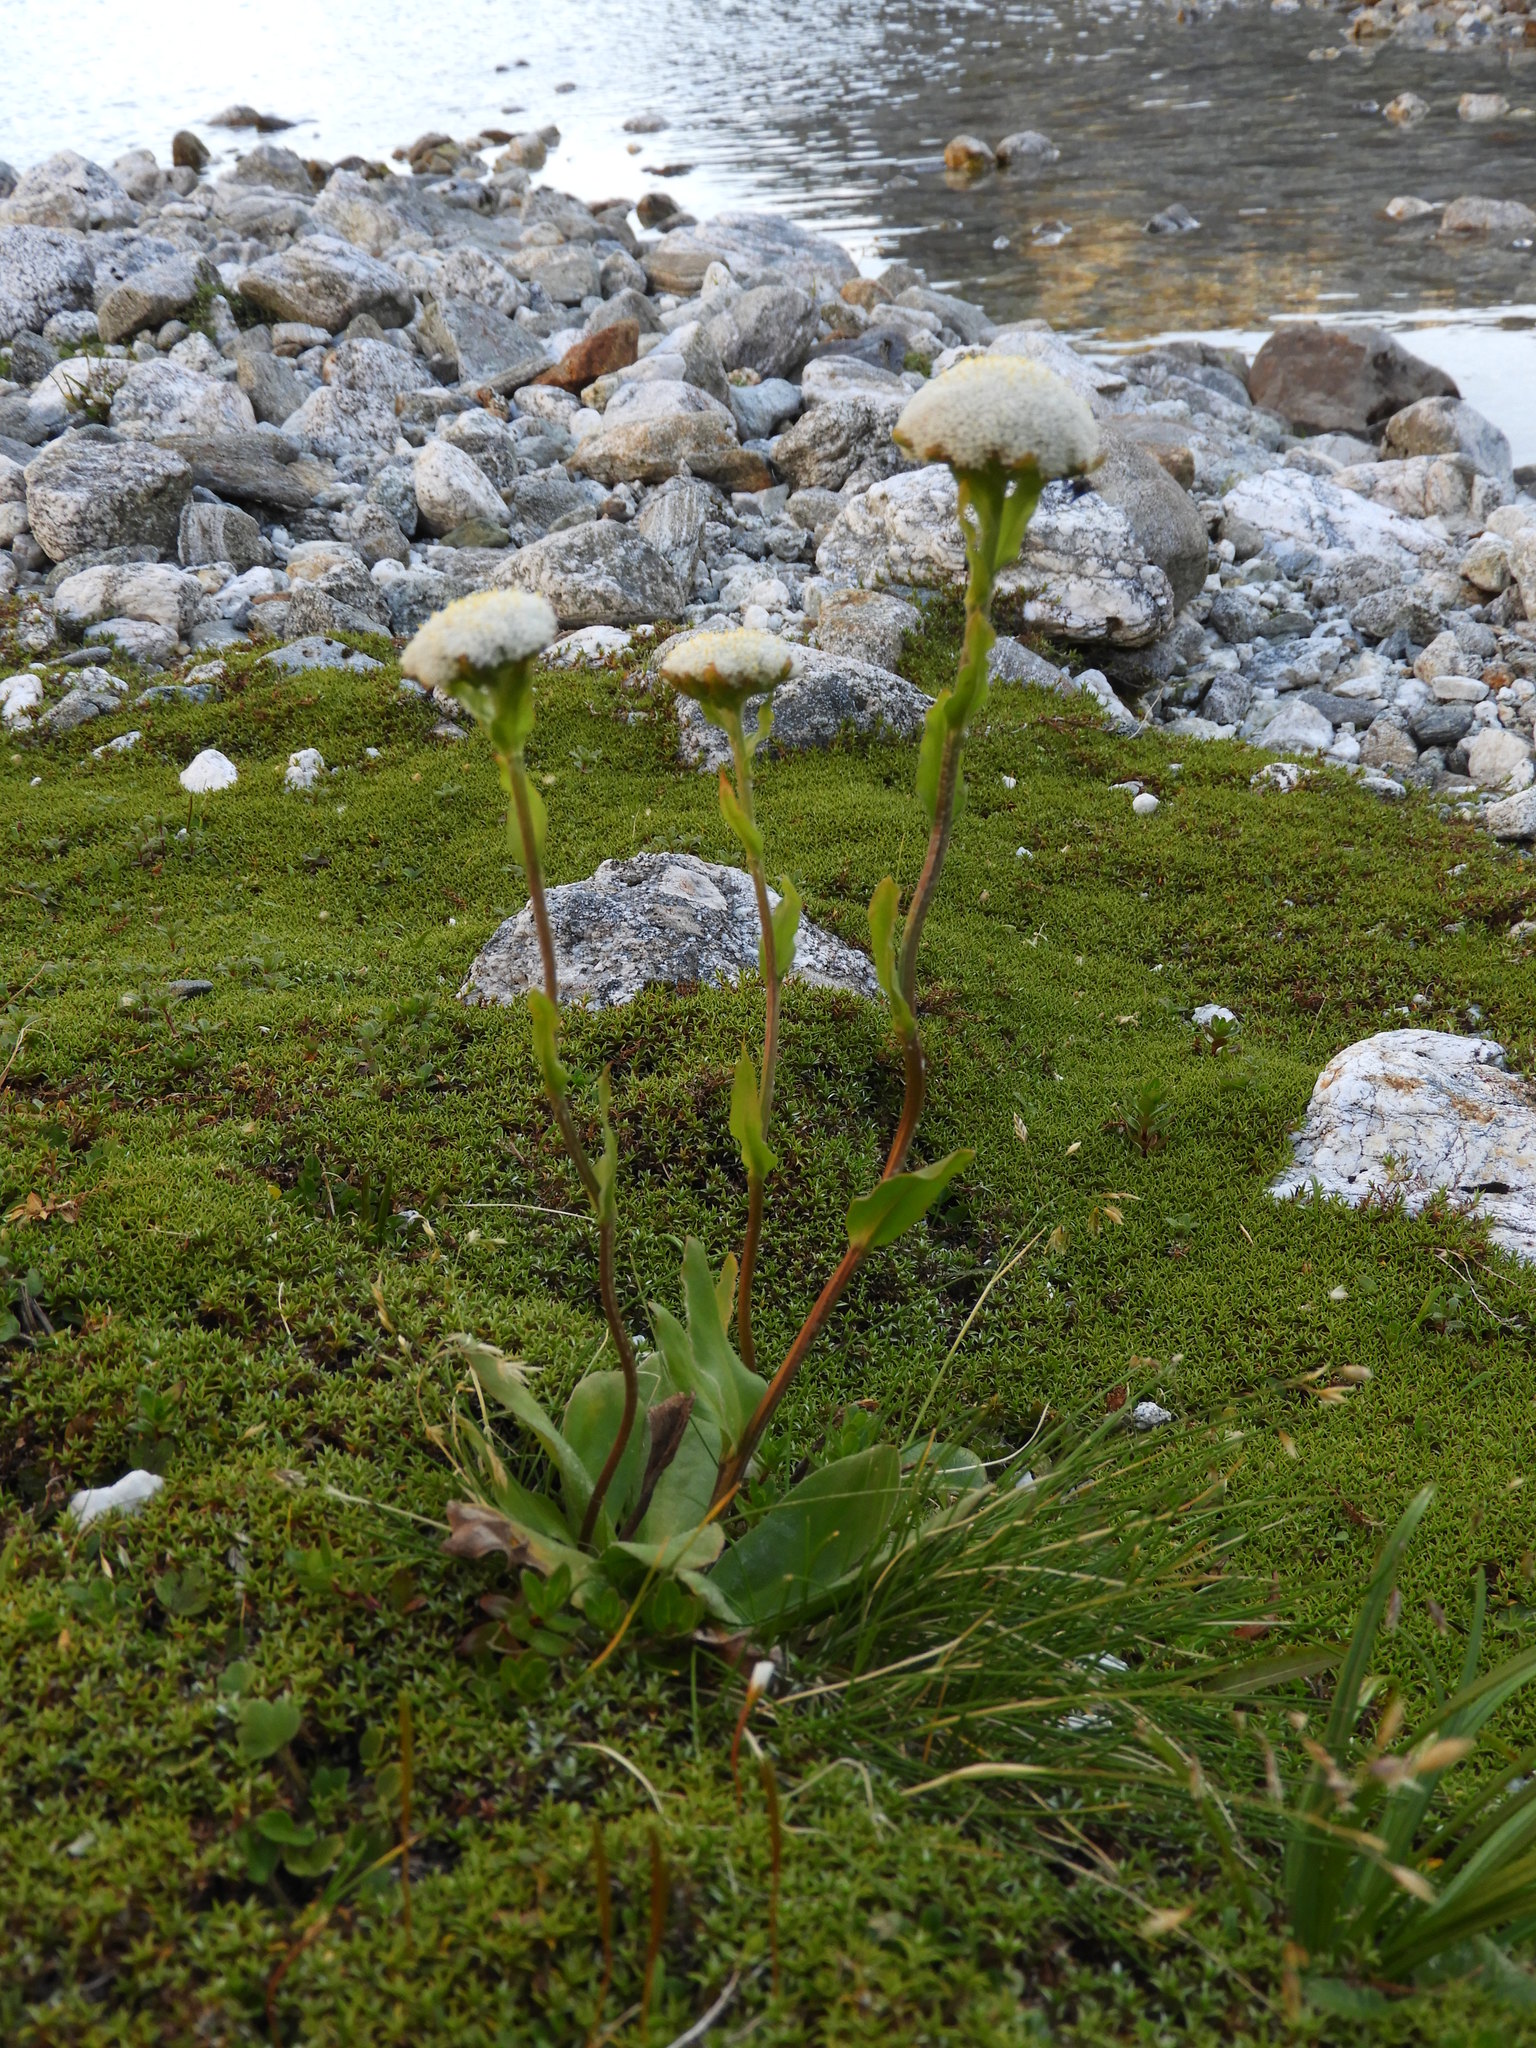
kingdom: Plantae
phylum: Tracheophyta
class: Magnoliopsida
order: Asterales
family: Asteraceae
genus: Craspedia
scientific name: Craspedia uniflora
